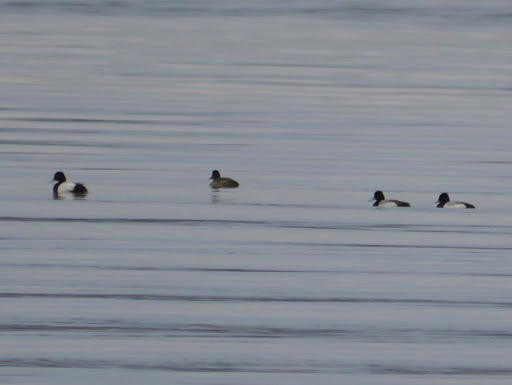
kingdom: Animalia
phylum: Chordata
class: Aves
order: Anseriformes
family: Anatidae
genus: Aythya
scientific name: Aythya affinis
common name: Lesser scaup
